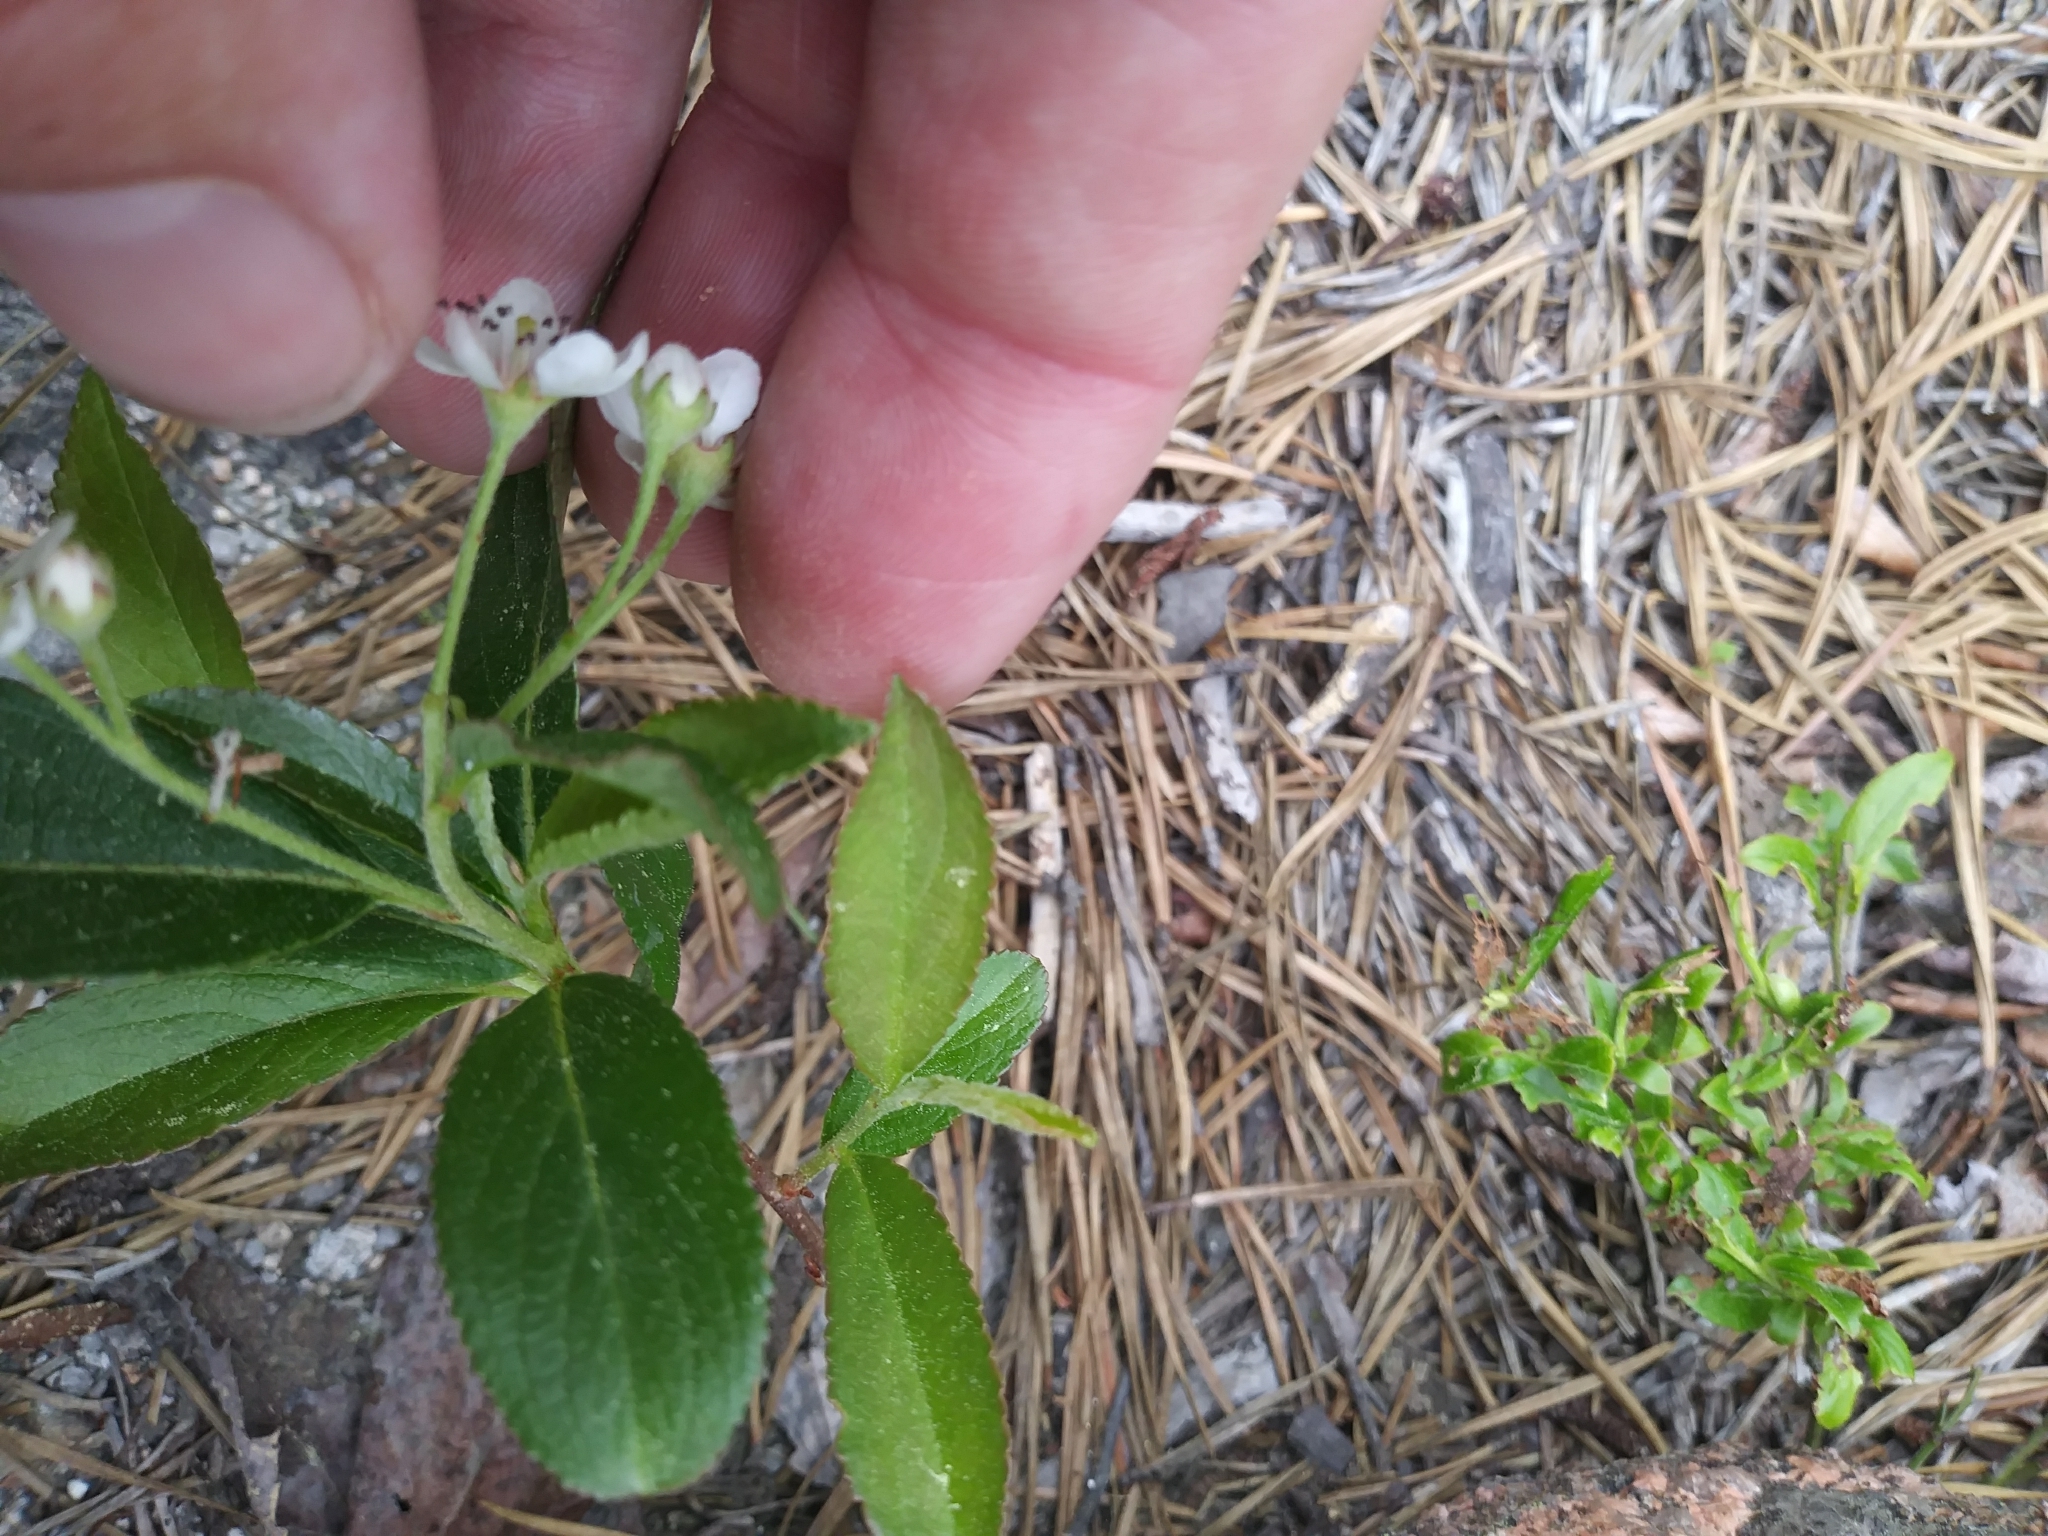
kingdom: Plantae
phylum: Tracheophyta
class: Magnoliopsida
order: Rosales
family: Rosaceae
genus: Aronia
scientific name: Aronia prunifolia
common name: Purple chokeberry
